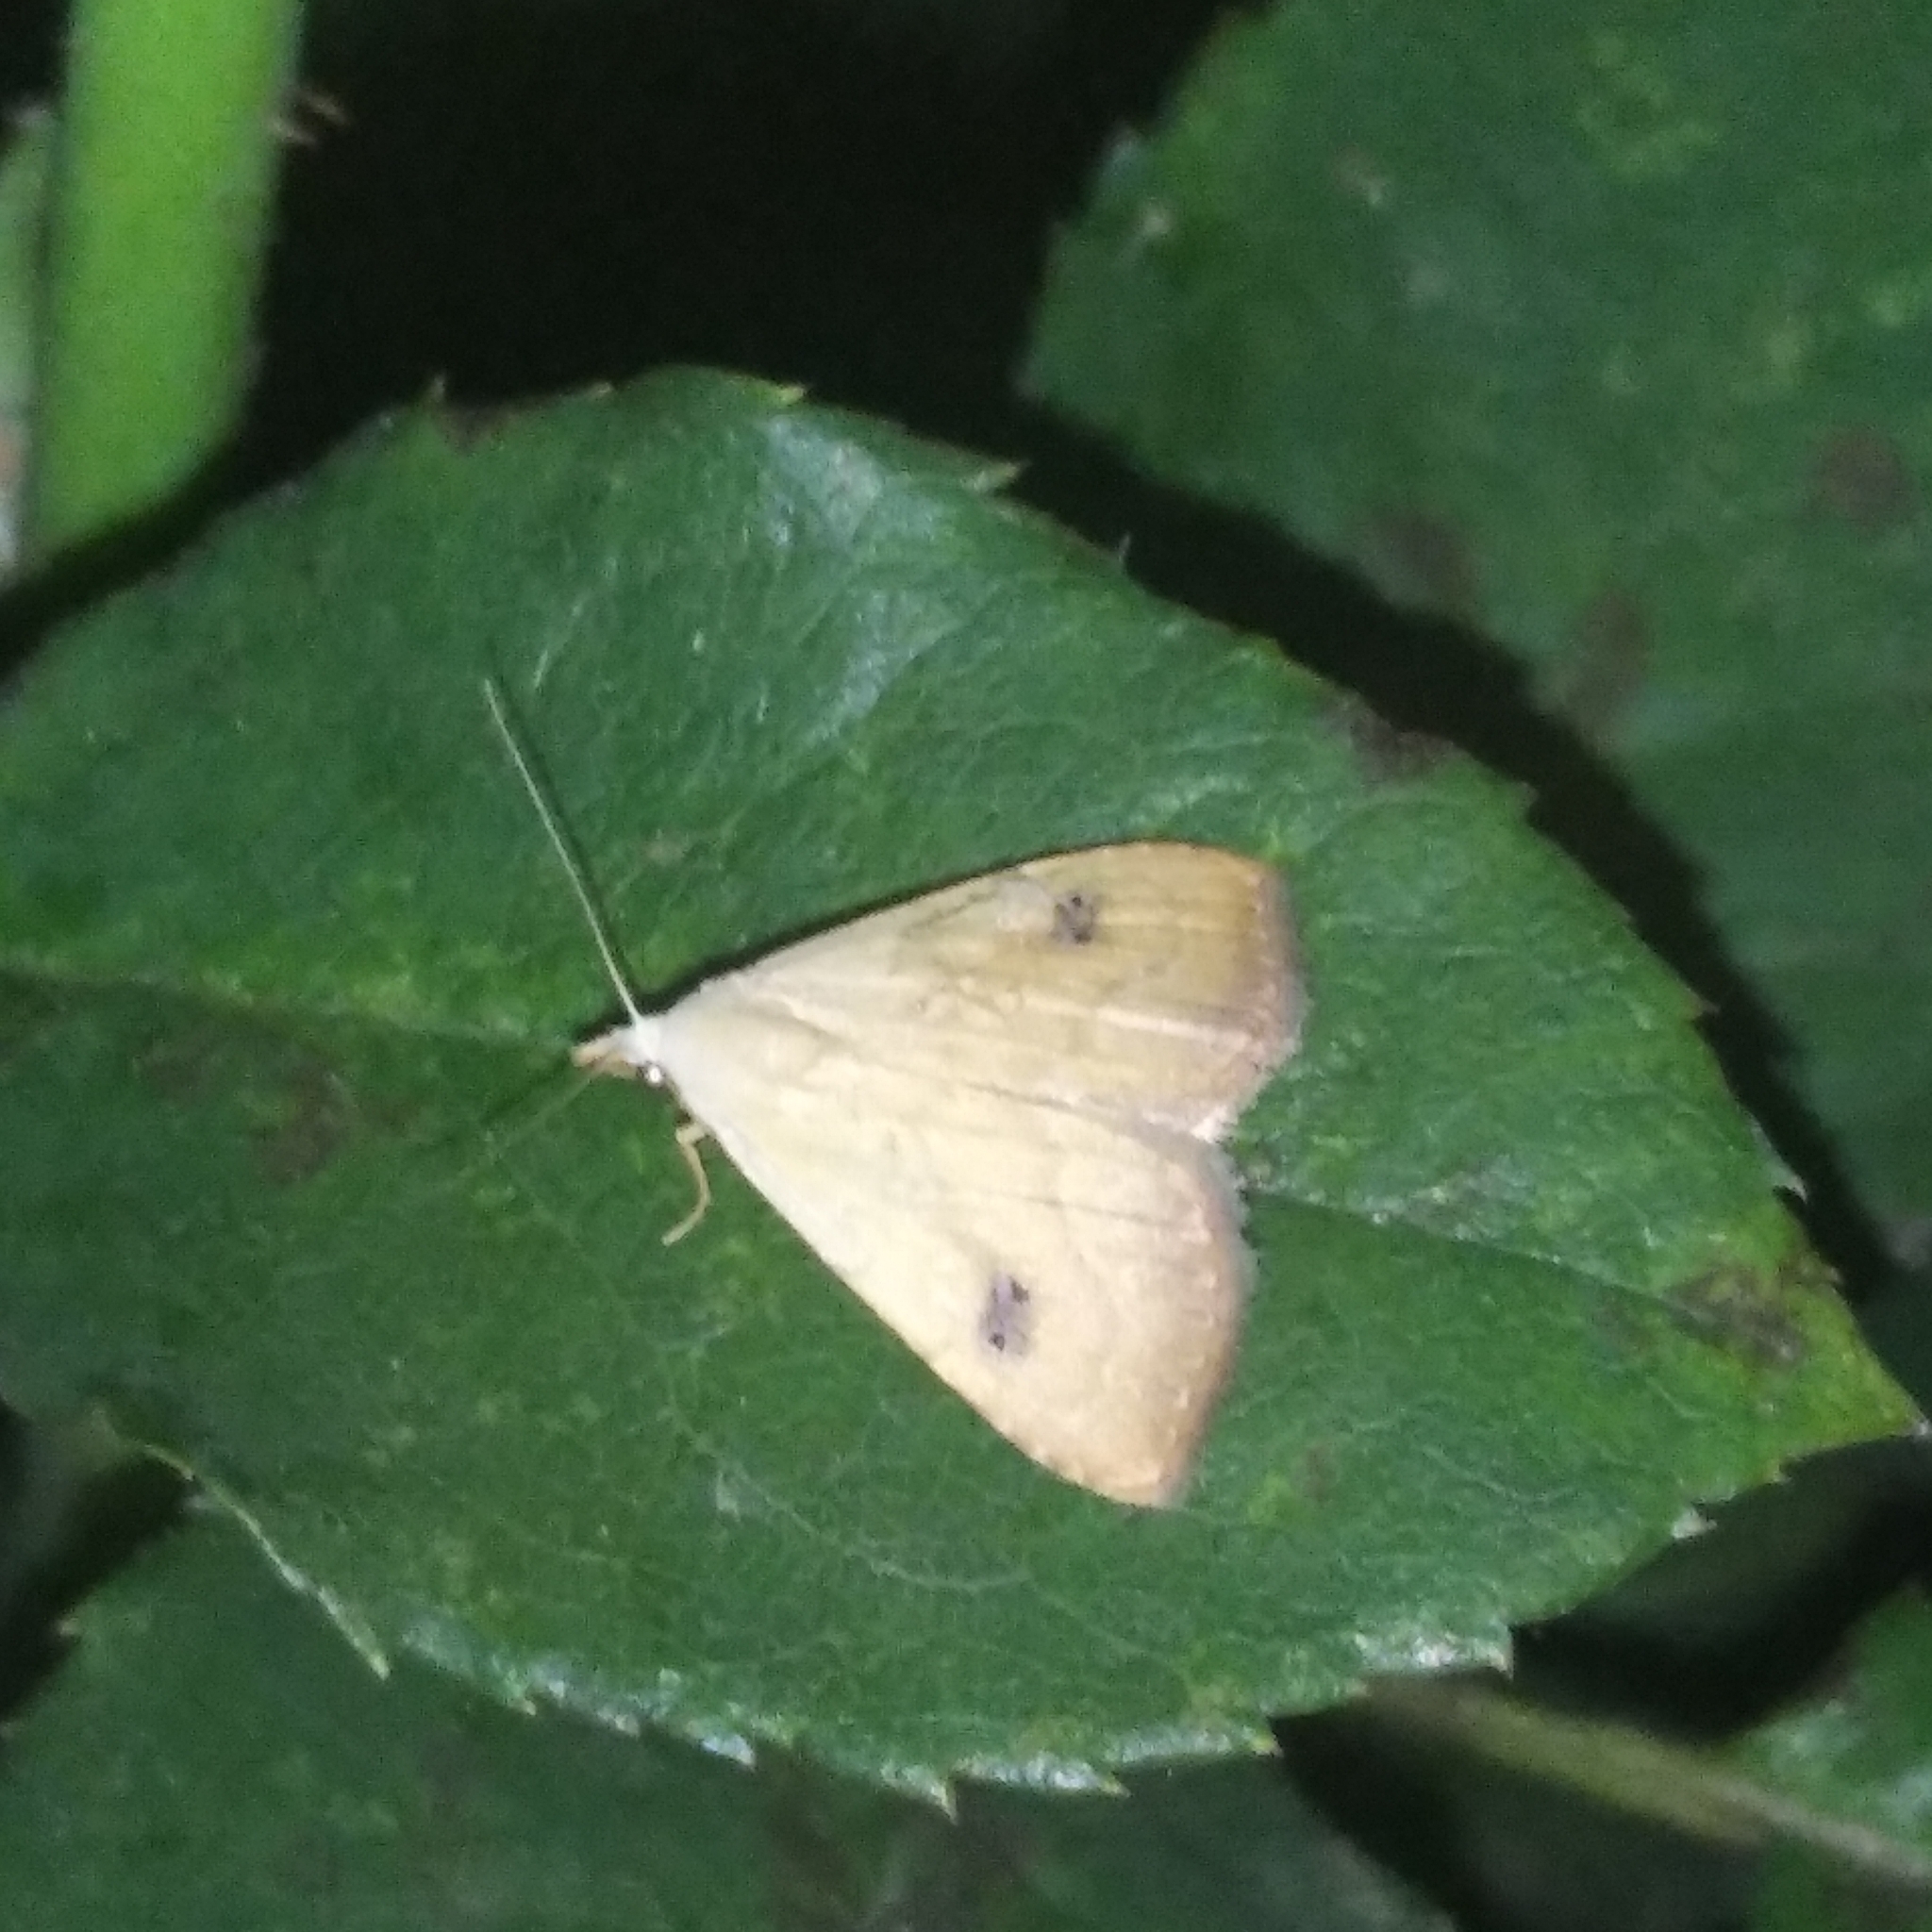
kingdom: Animalia
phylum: Arthropoda
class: Insecta
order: Lepidoptera
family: Erebidae
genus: Rivula
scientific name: Rivula sericealis
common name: Straw dot
